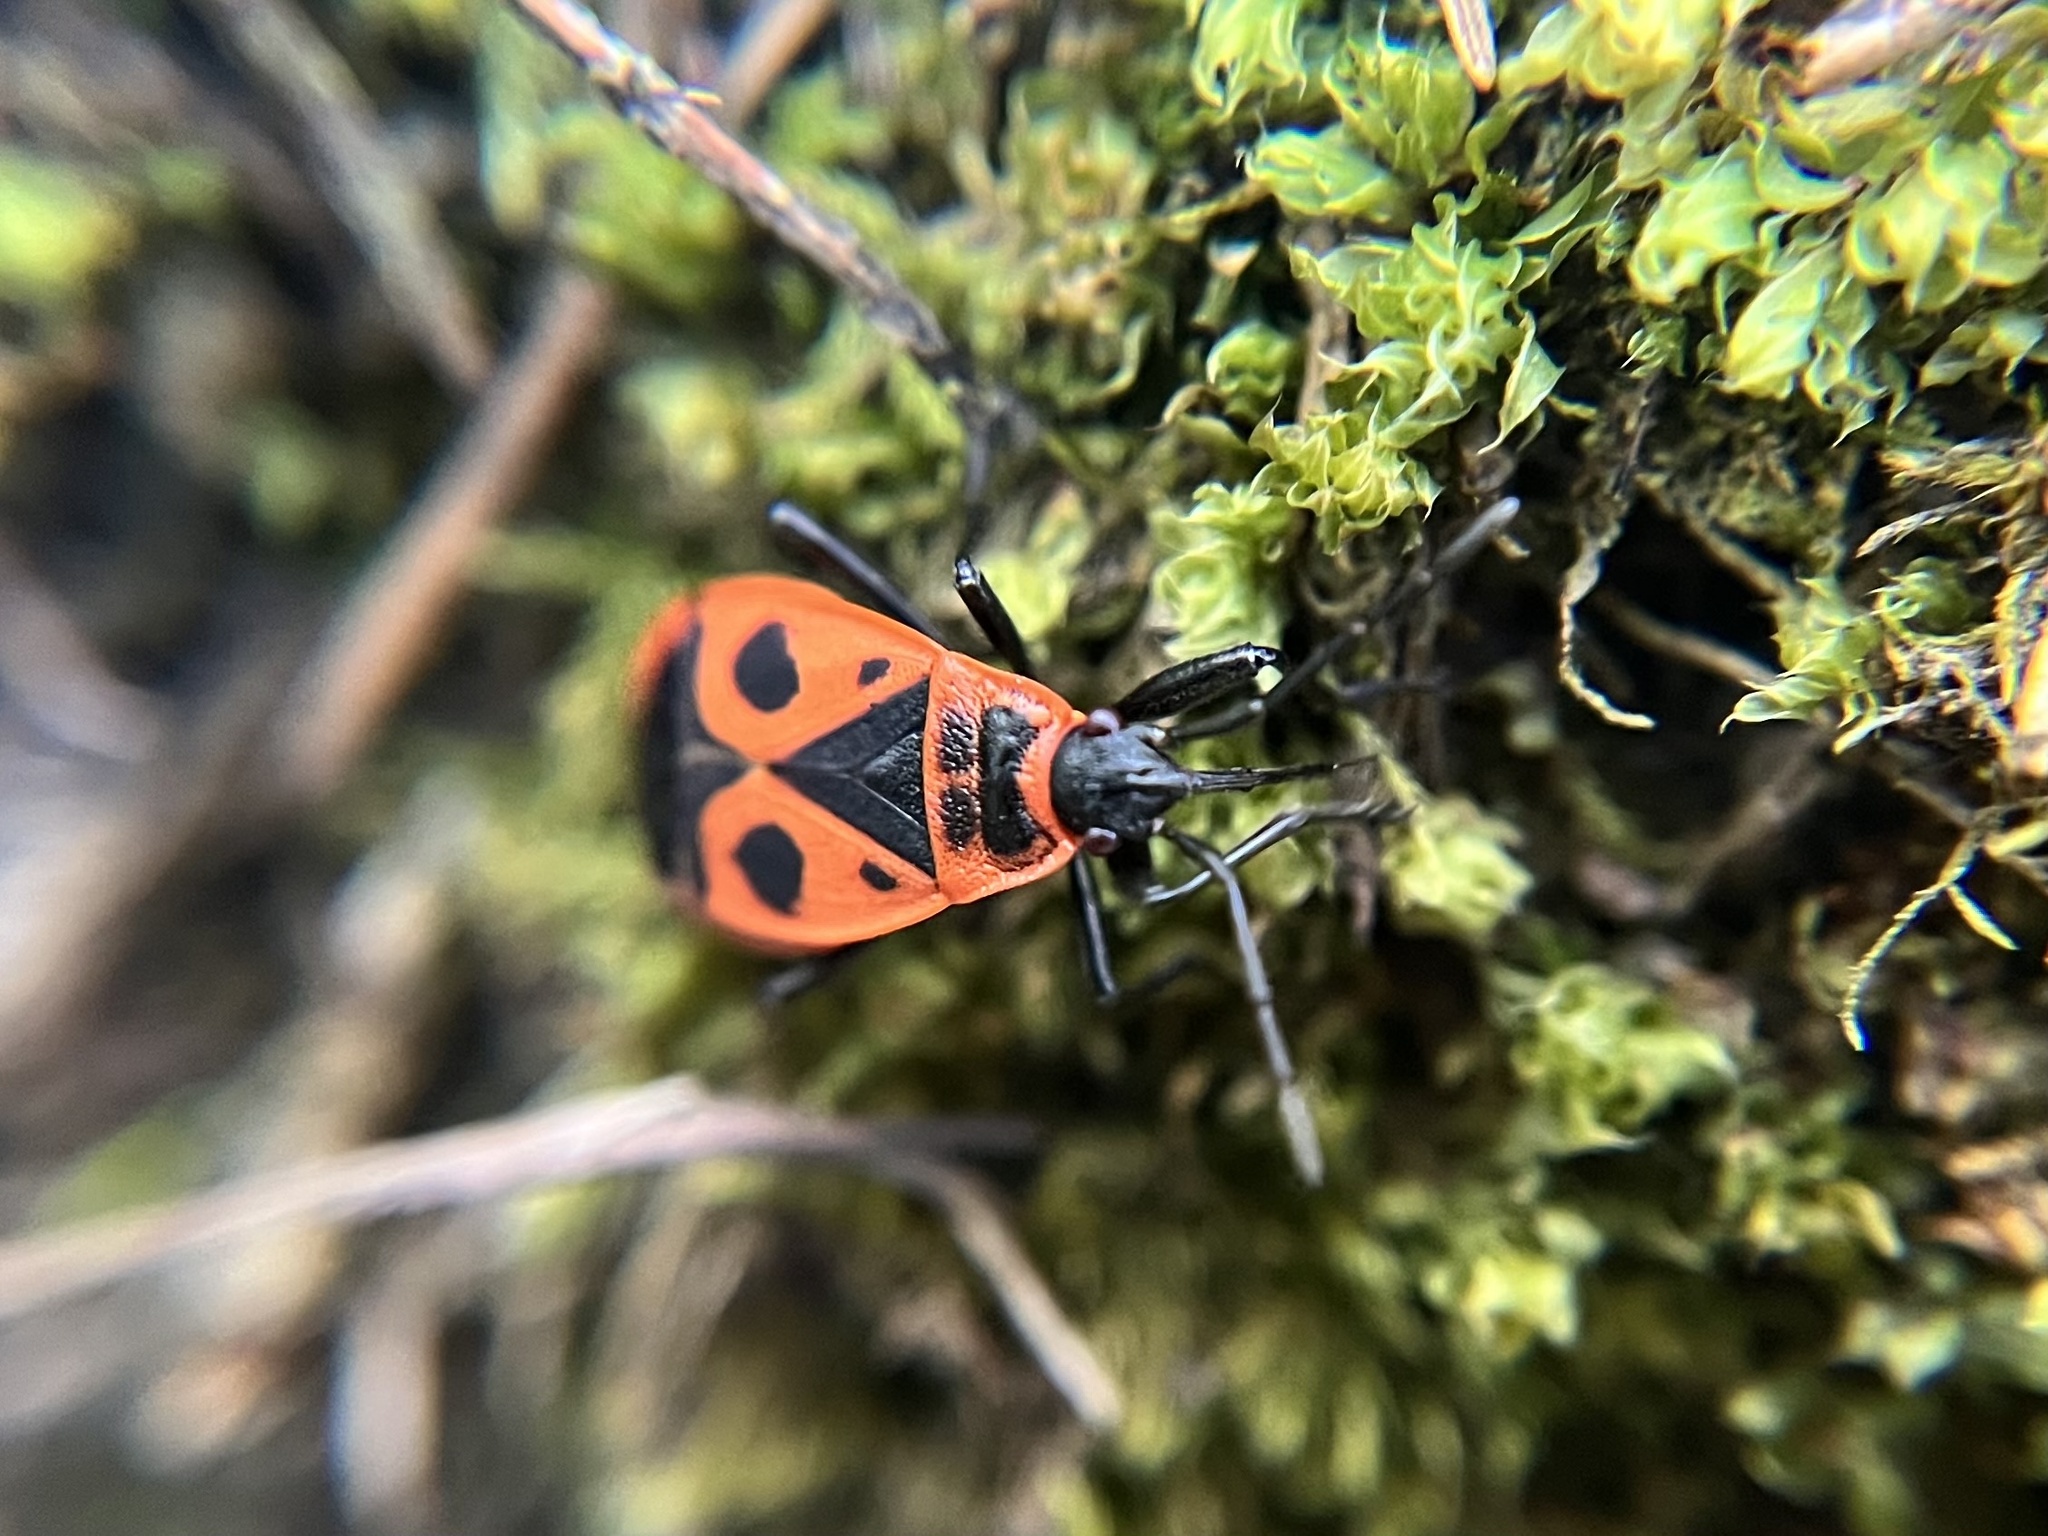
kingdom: Animalia
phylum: Arthropoda
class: Insecta
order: Hemiptera
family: Pyrrhocoridae
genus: Pyrrhocoris
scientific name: Pyrrhocoris apterus
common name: Firebug
